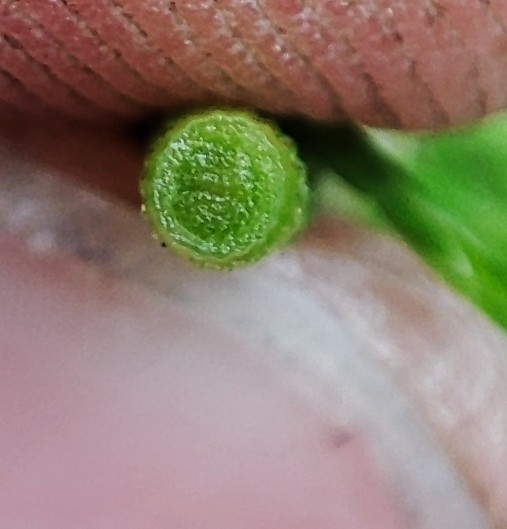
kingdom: Plantae
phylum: Tracheophyta
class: Polypodiopsida
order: Equisetales
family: Equisetaceae
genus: Equisetum
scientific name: Equisetum pratense
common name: Meadow horsetail
